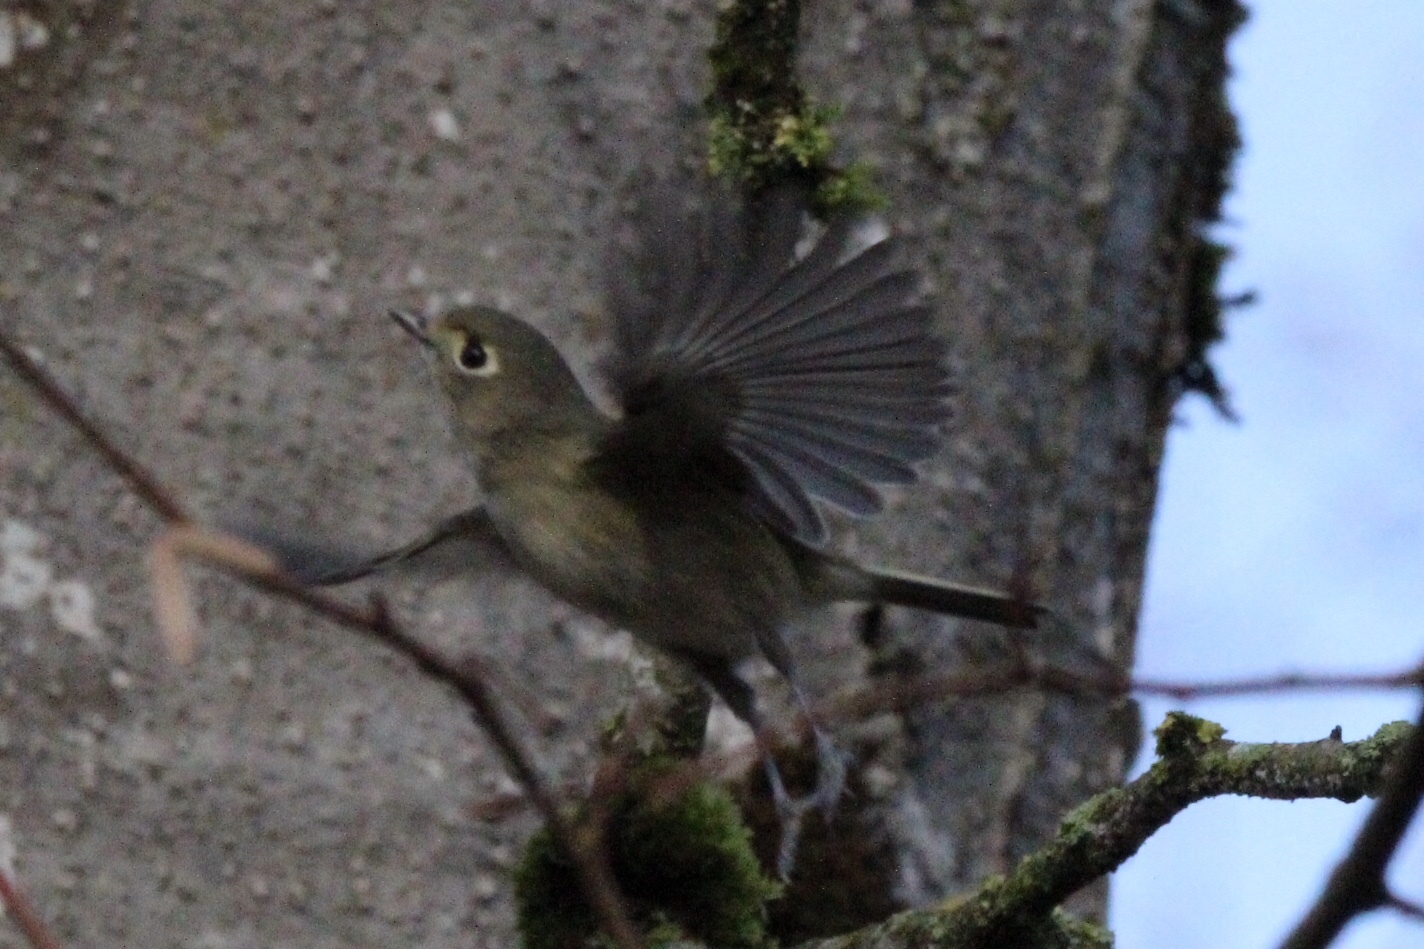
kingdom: Animalia
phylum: Chordata
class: Aves
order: Passeriformes
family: Vireonidae
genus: Vireo
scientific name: Vireo huttoni
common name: Hutton's vireo
